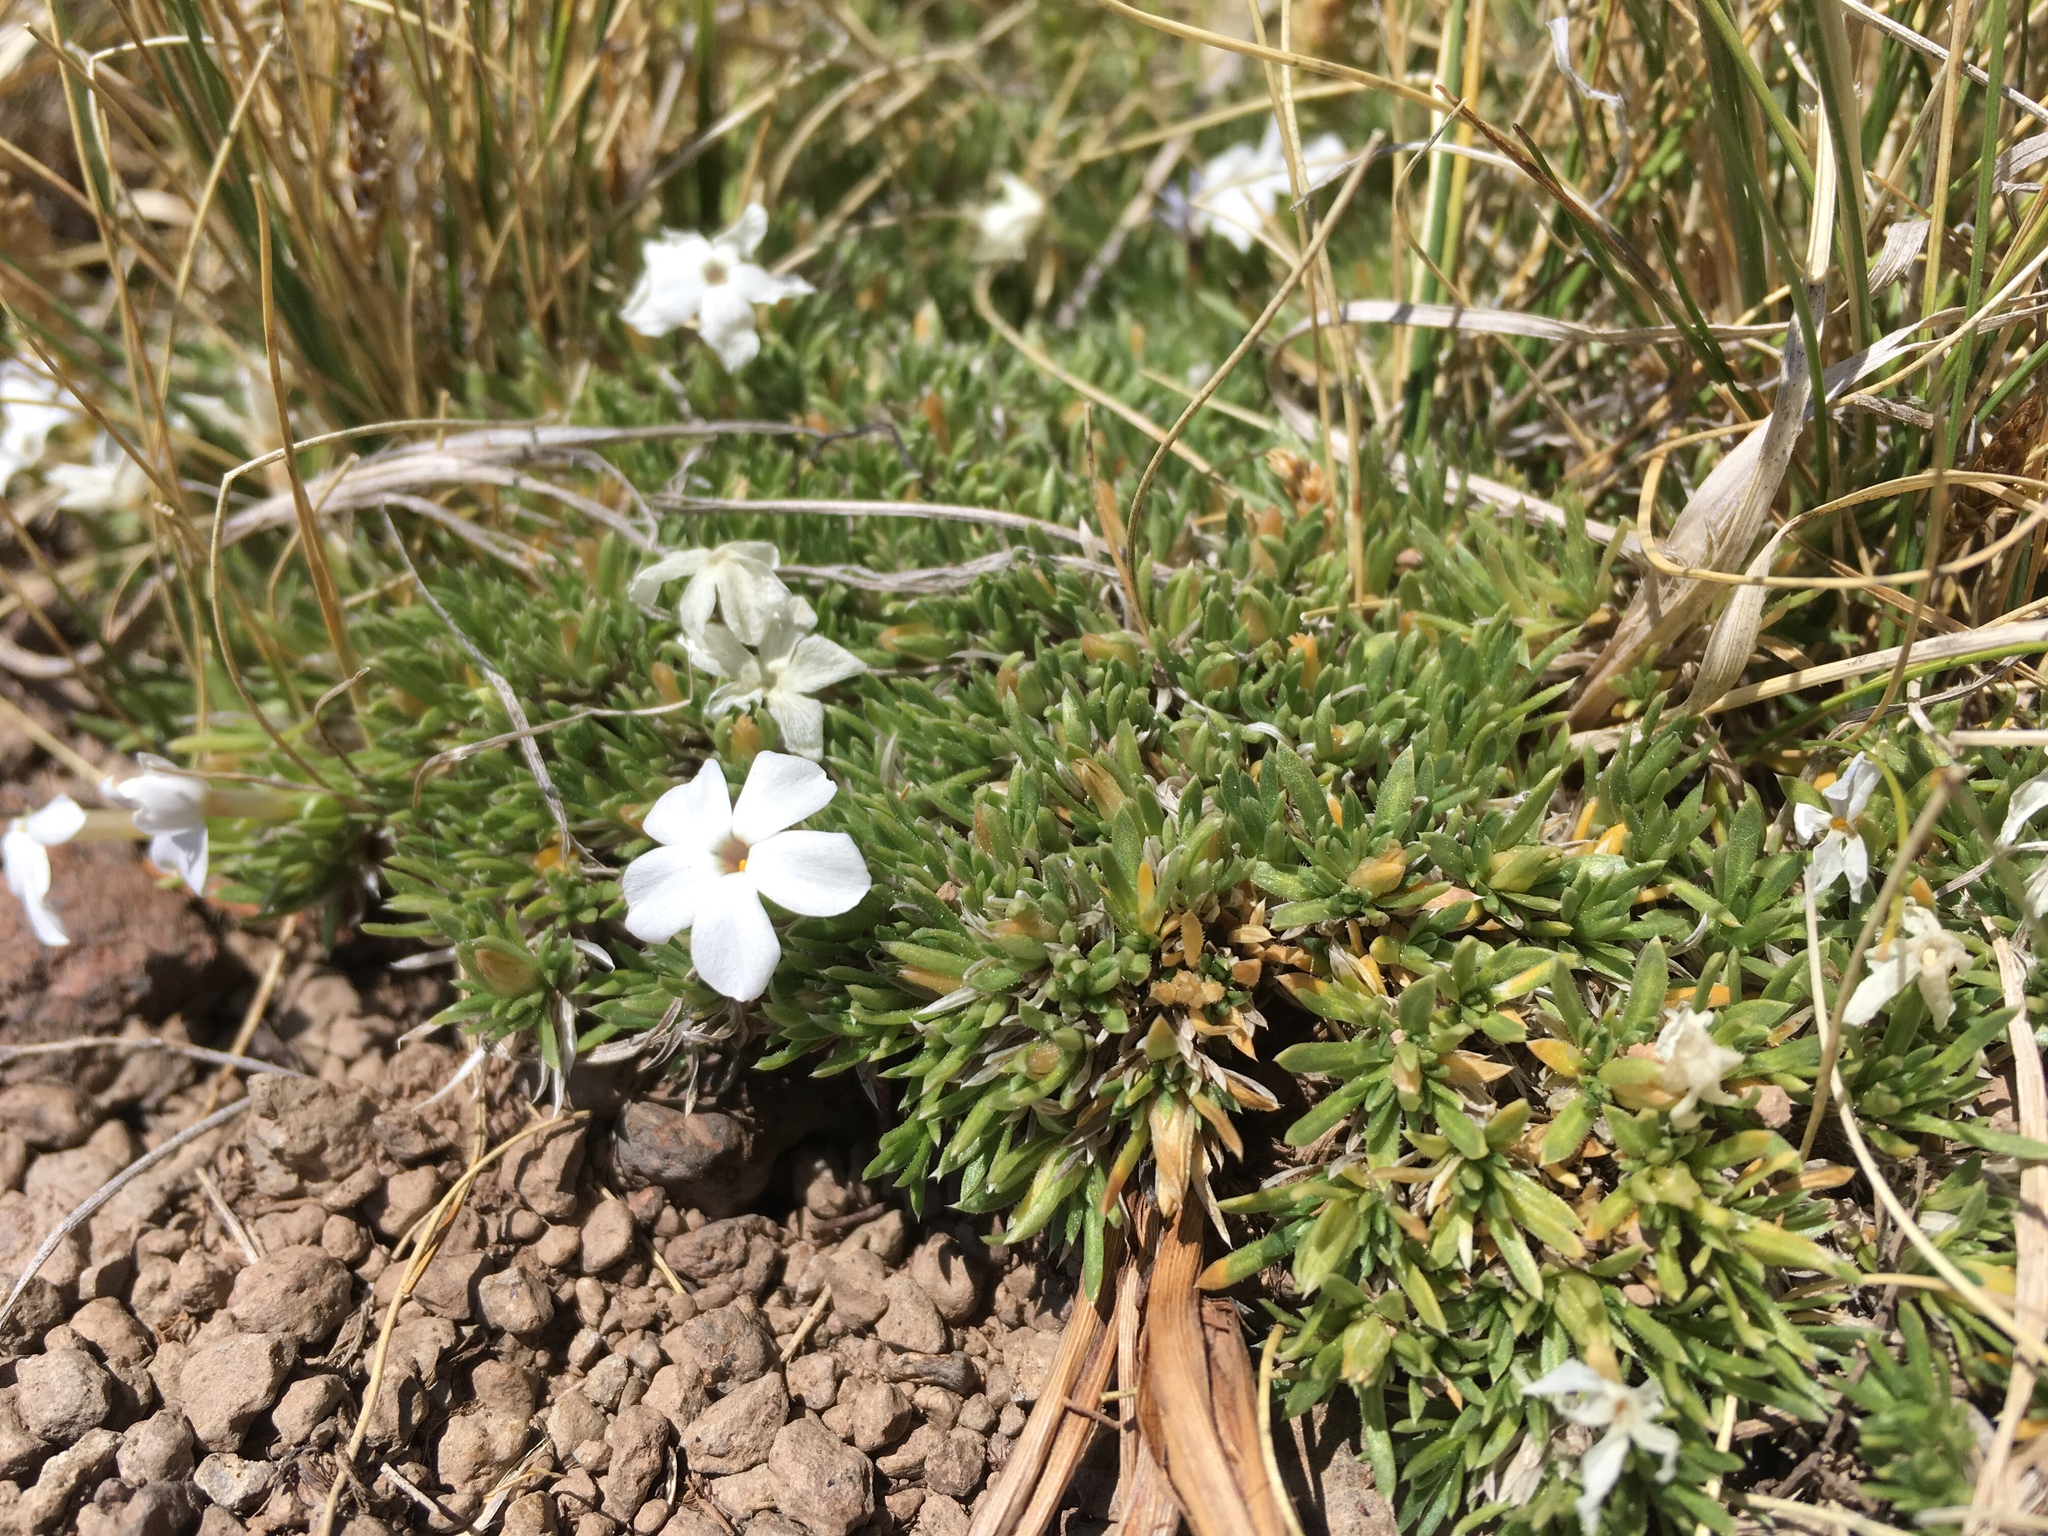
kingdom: Plantae
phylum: Tracheophyta
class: Magnoliopsida
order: Ericales
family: Polemoniaceae
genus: Phlox
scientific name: Phlox condensata
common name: Compact phlox
